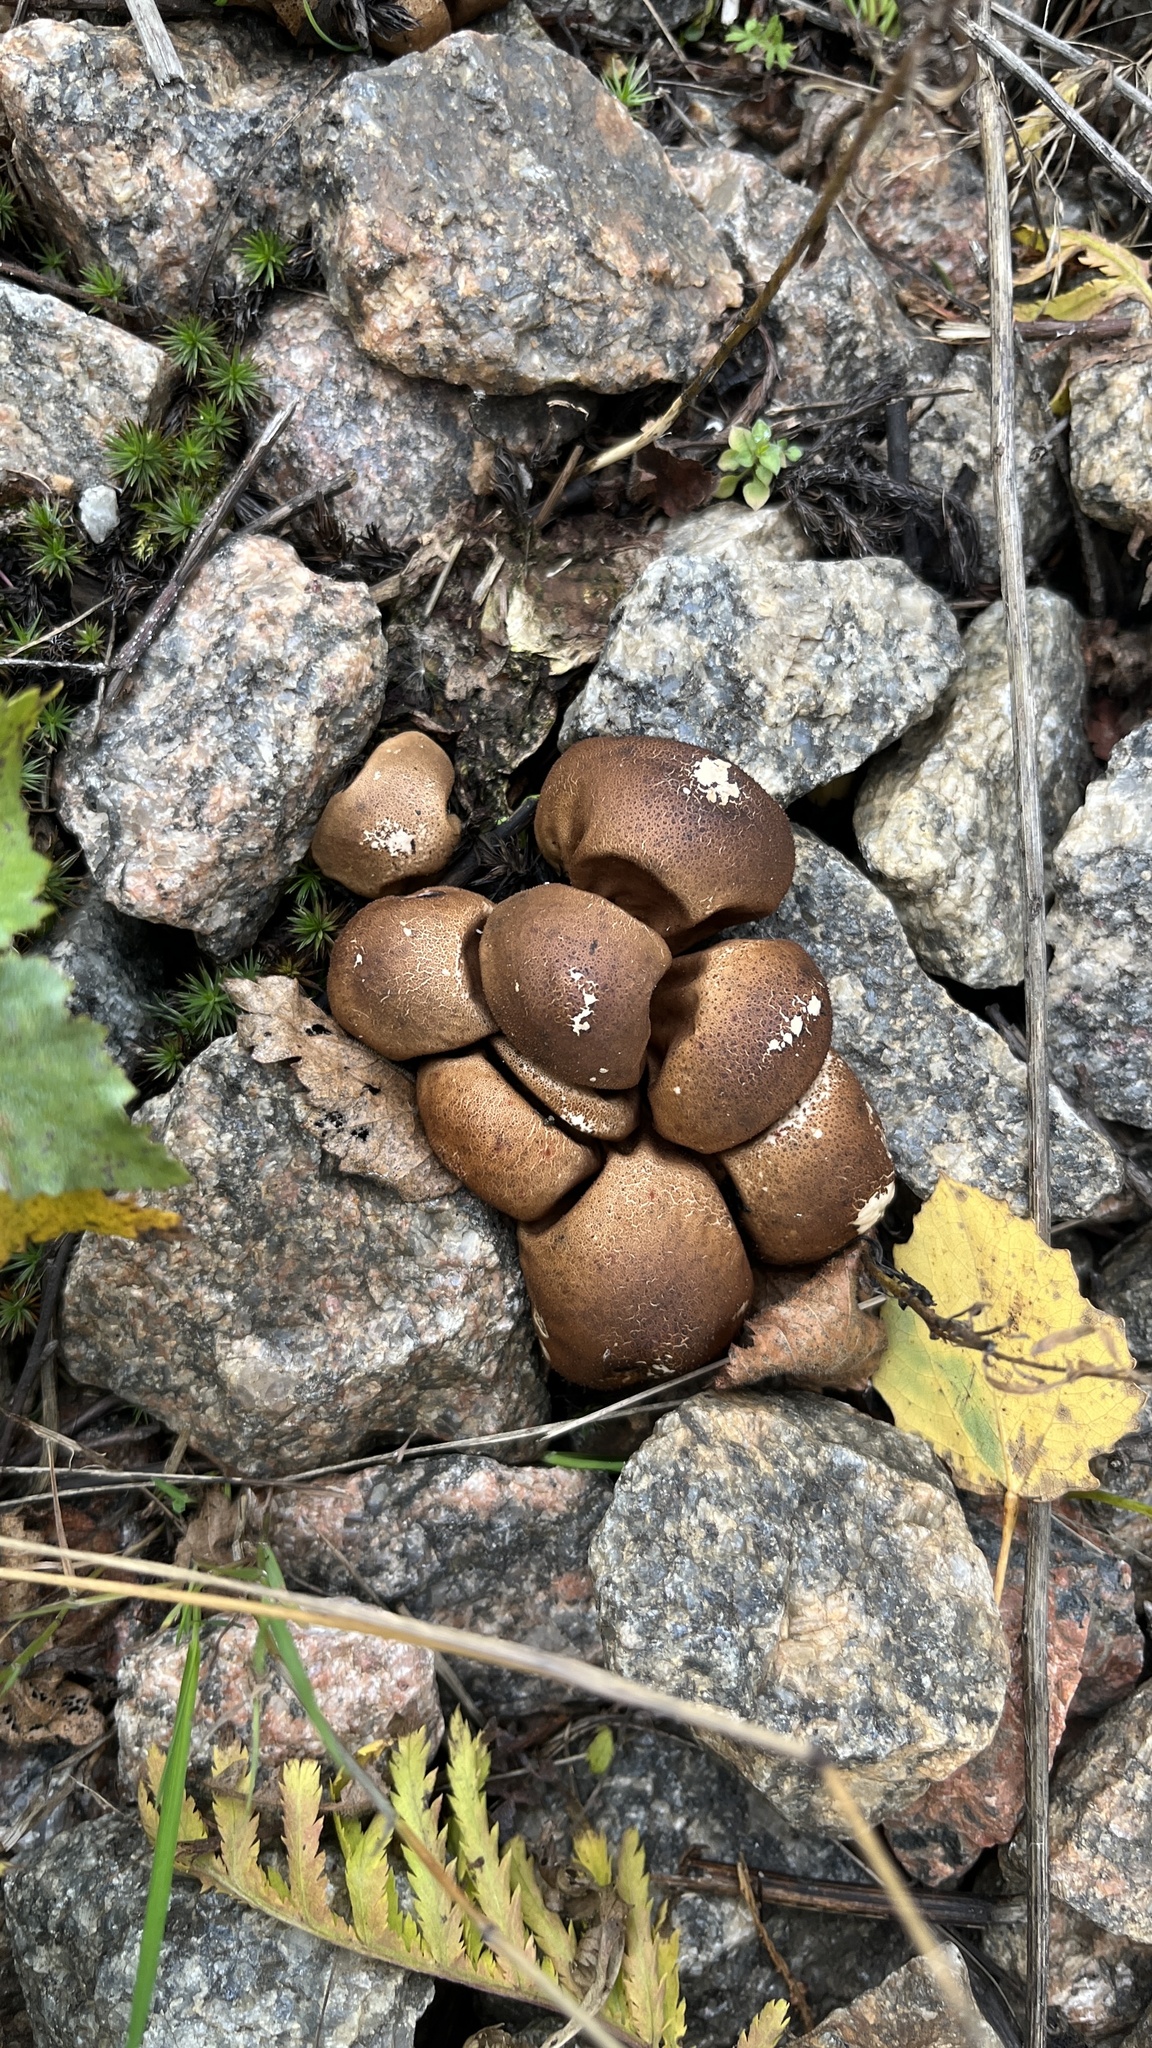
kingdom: Fungi
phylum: Basidiomycota
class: Agaricomycetes
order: Agaricales
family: Lycoperdaceae
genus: Apioperdon
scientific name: Apioperdon pyriforme
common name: Pear-shaped puffball
